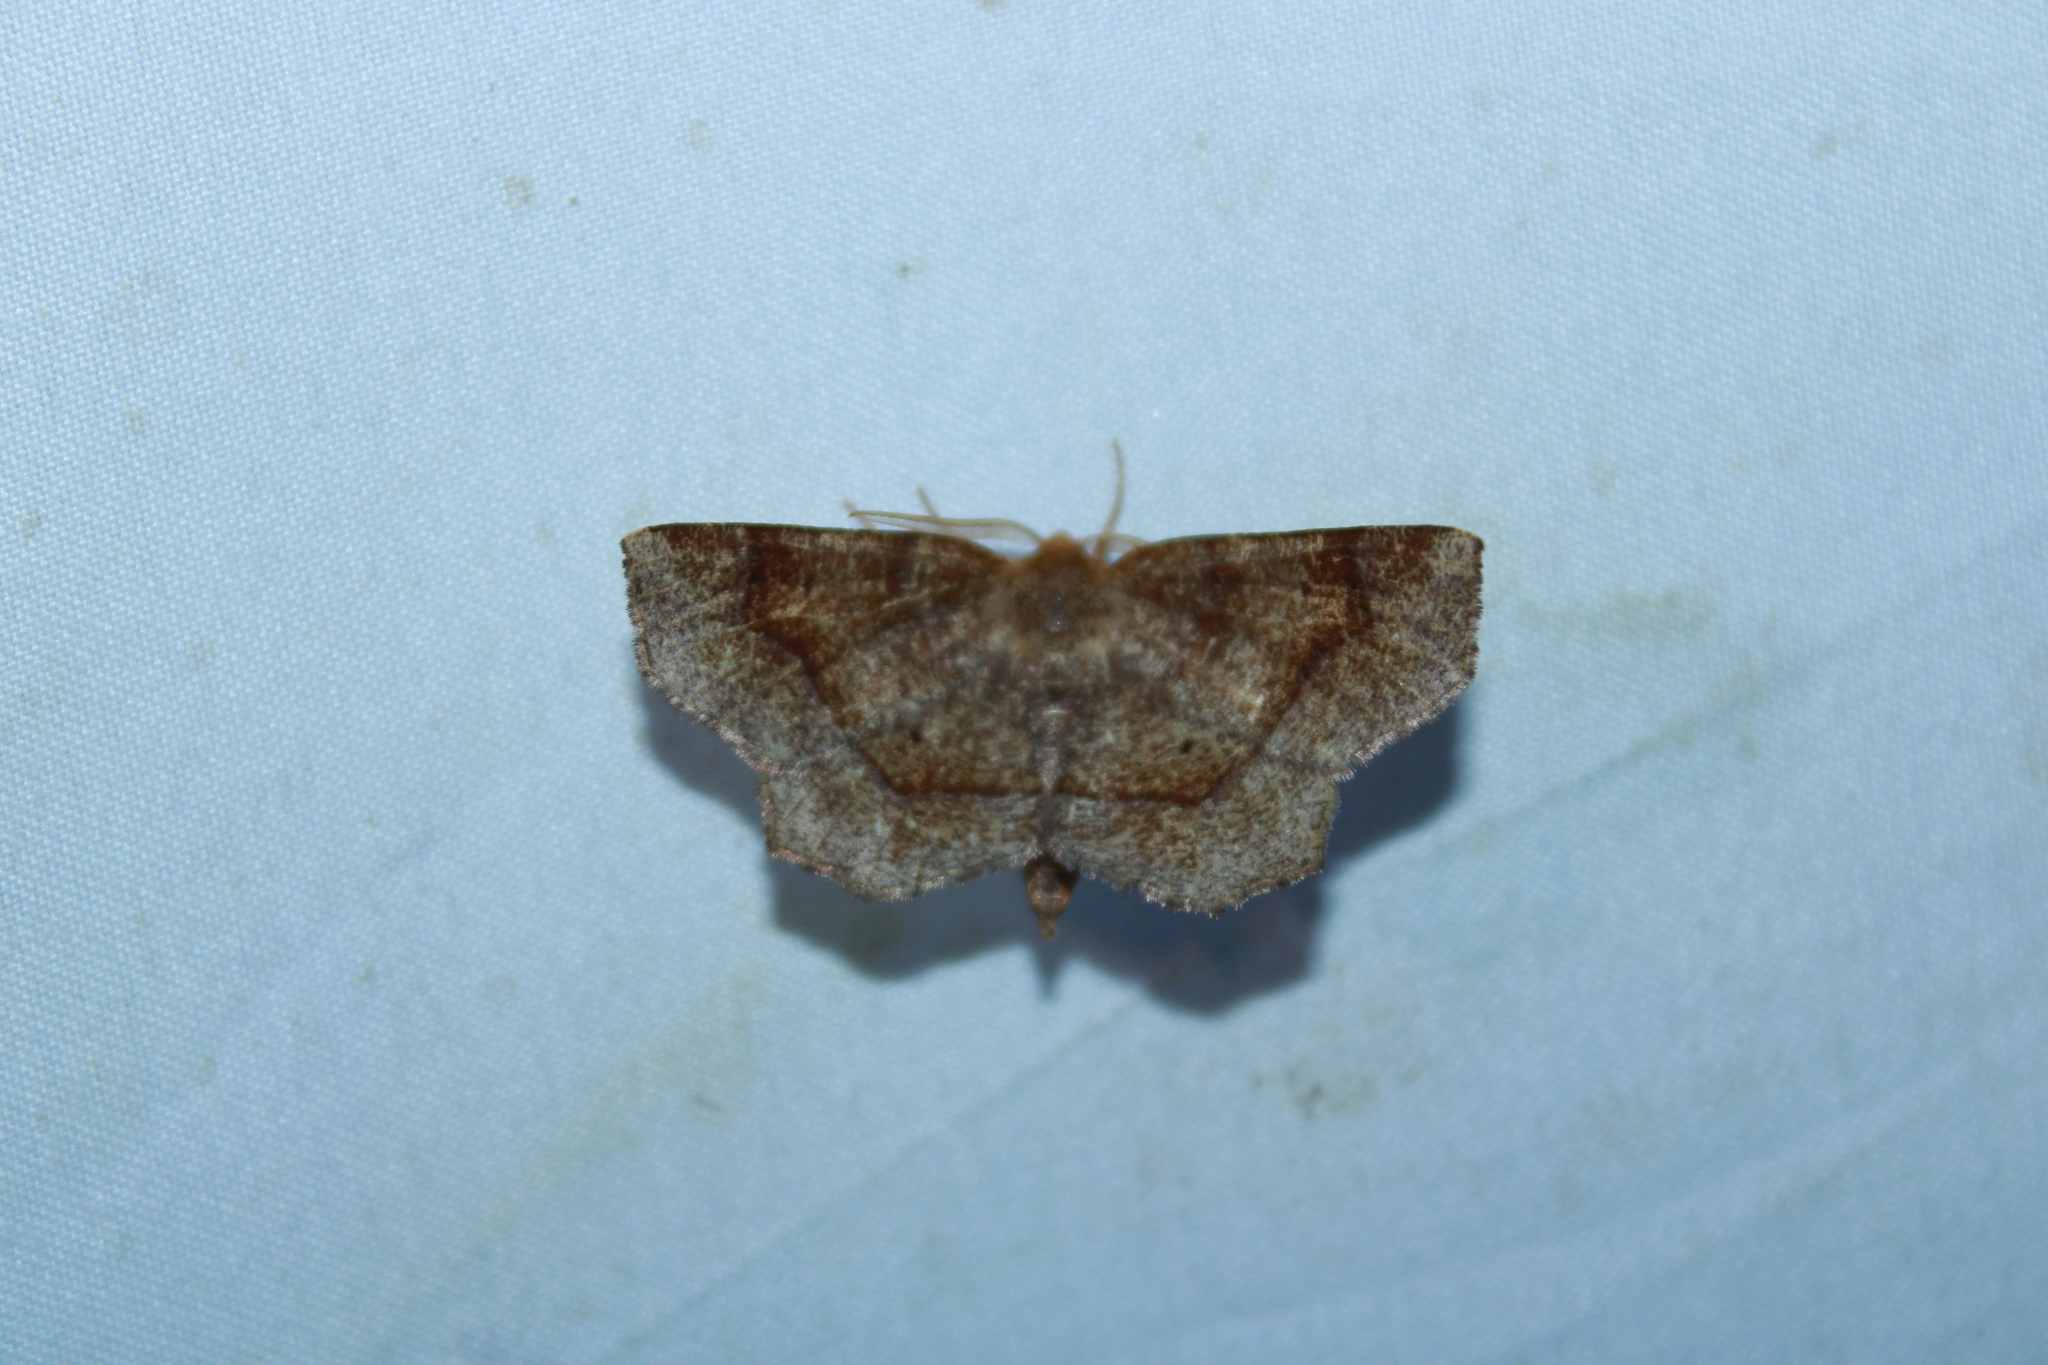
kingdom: Animalia
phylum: Arthropoda
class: Insecta
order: Lepidoptera
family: Geometridae
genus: Metarranthis
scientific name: Metarranthis hypochraria
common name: Common metarranthis
